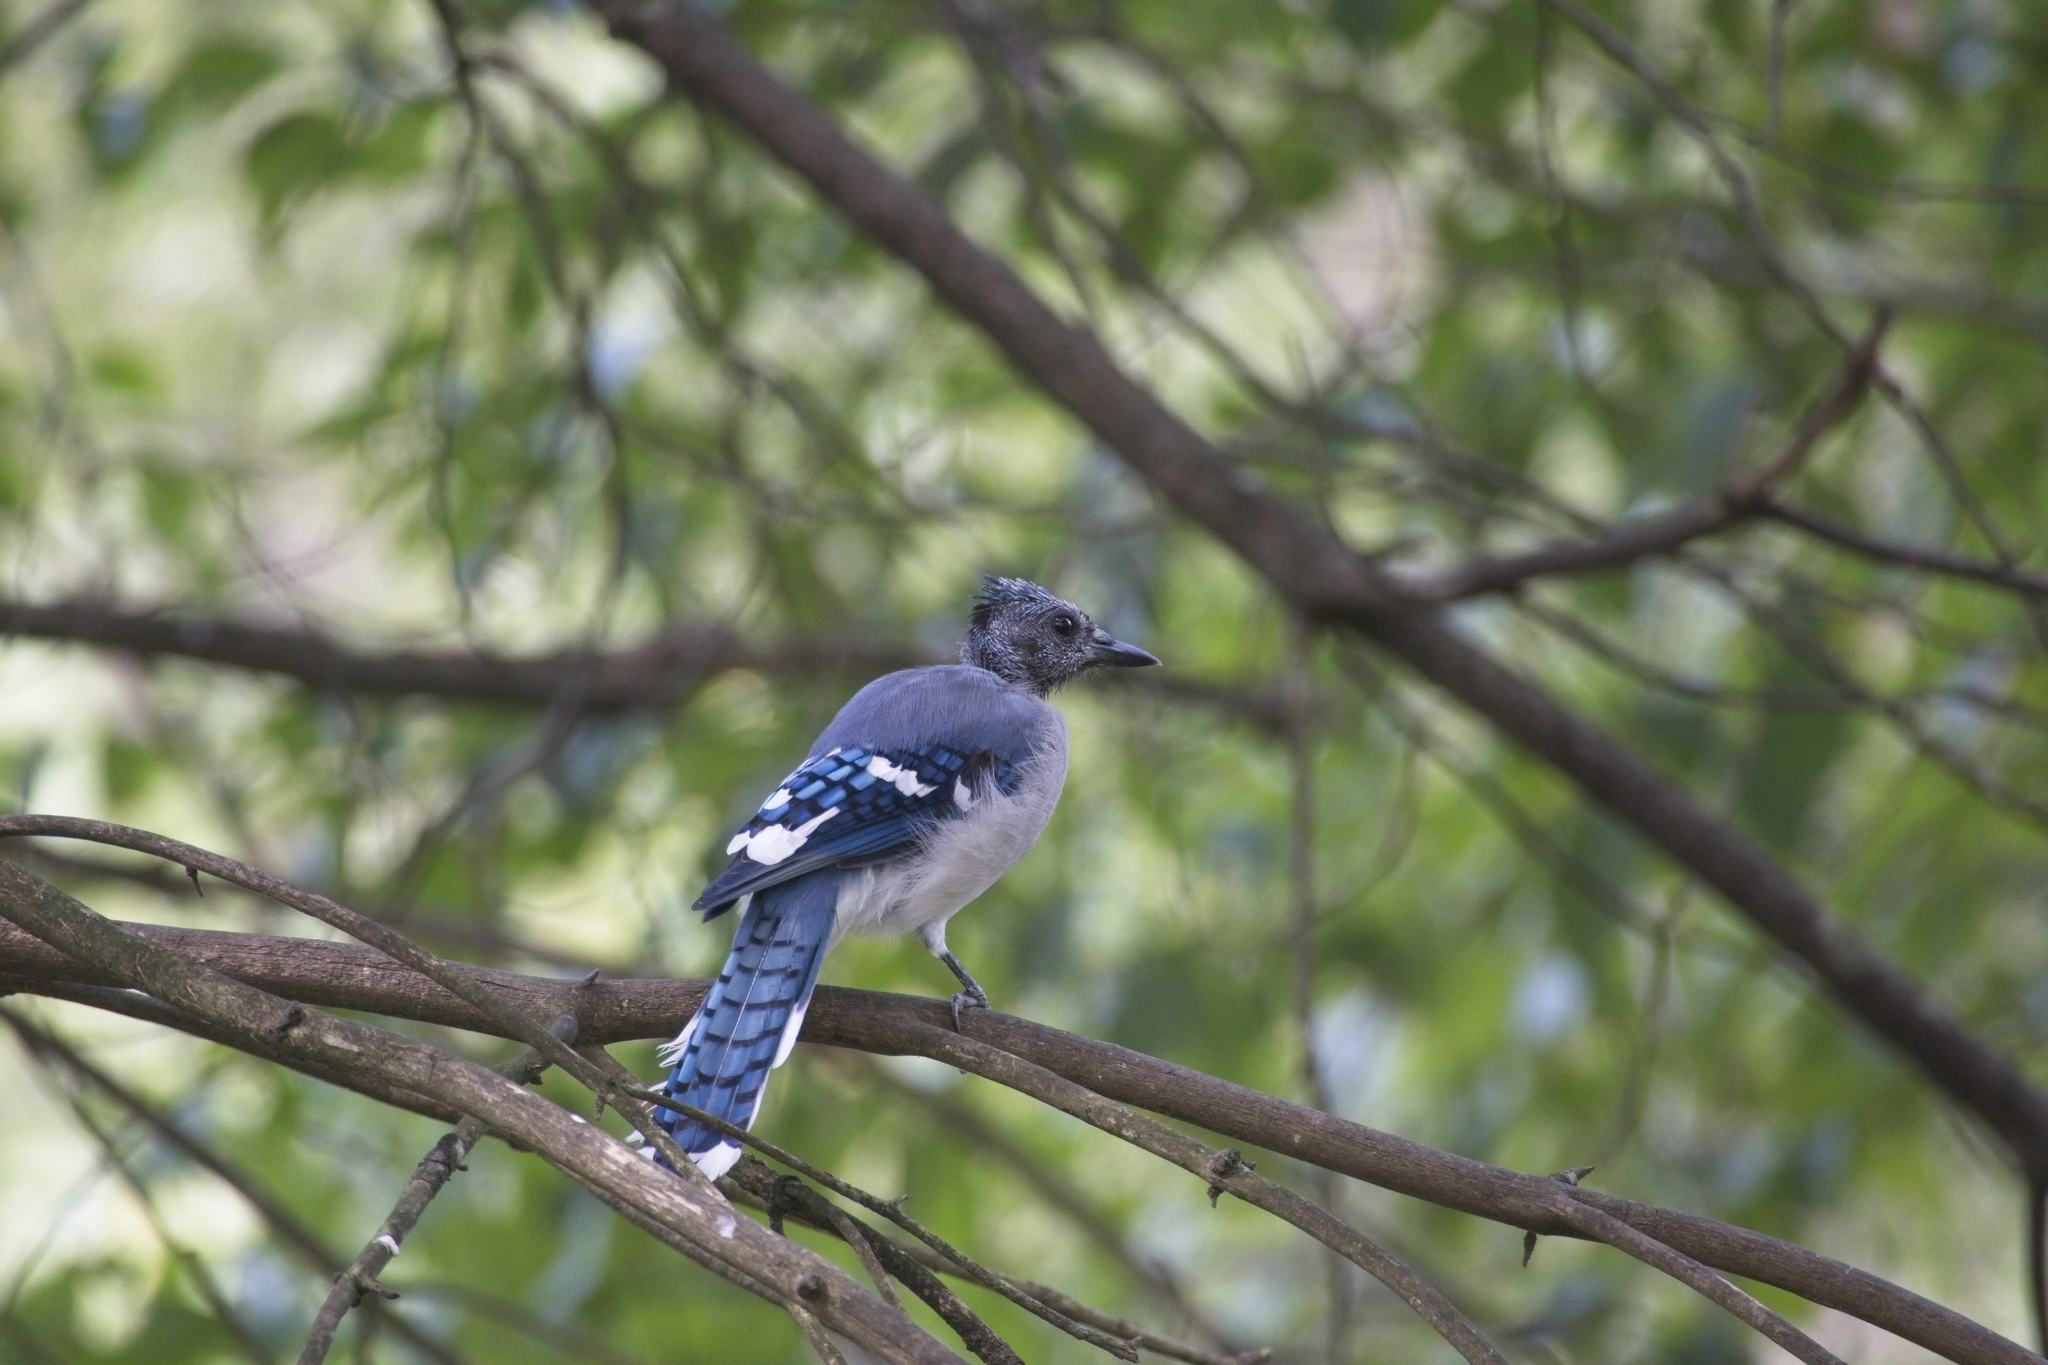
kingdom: Animalia
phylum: Chordata
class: Aves
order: Passeriformes
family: Corvidae
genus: Cyanocitta
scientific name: Cyanocitta cristata
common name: Blue jay
